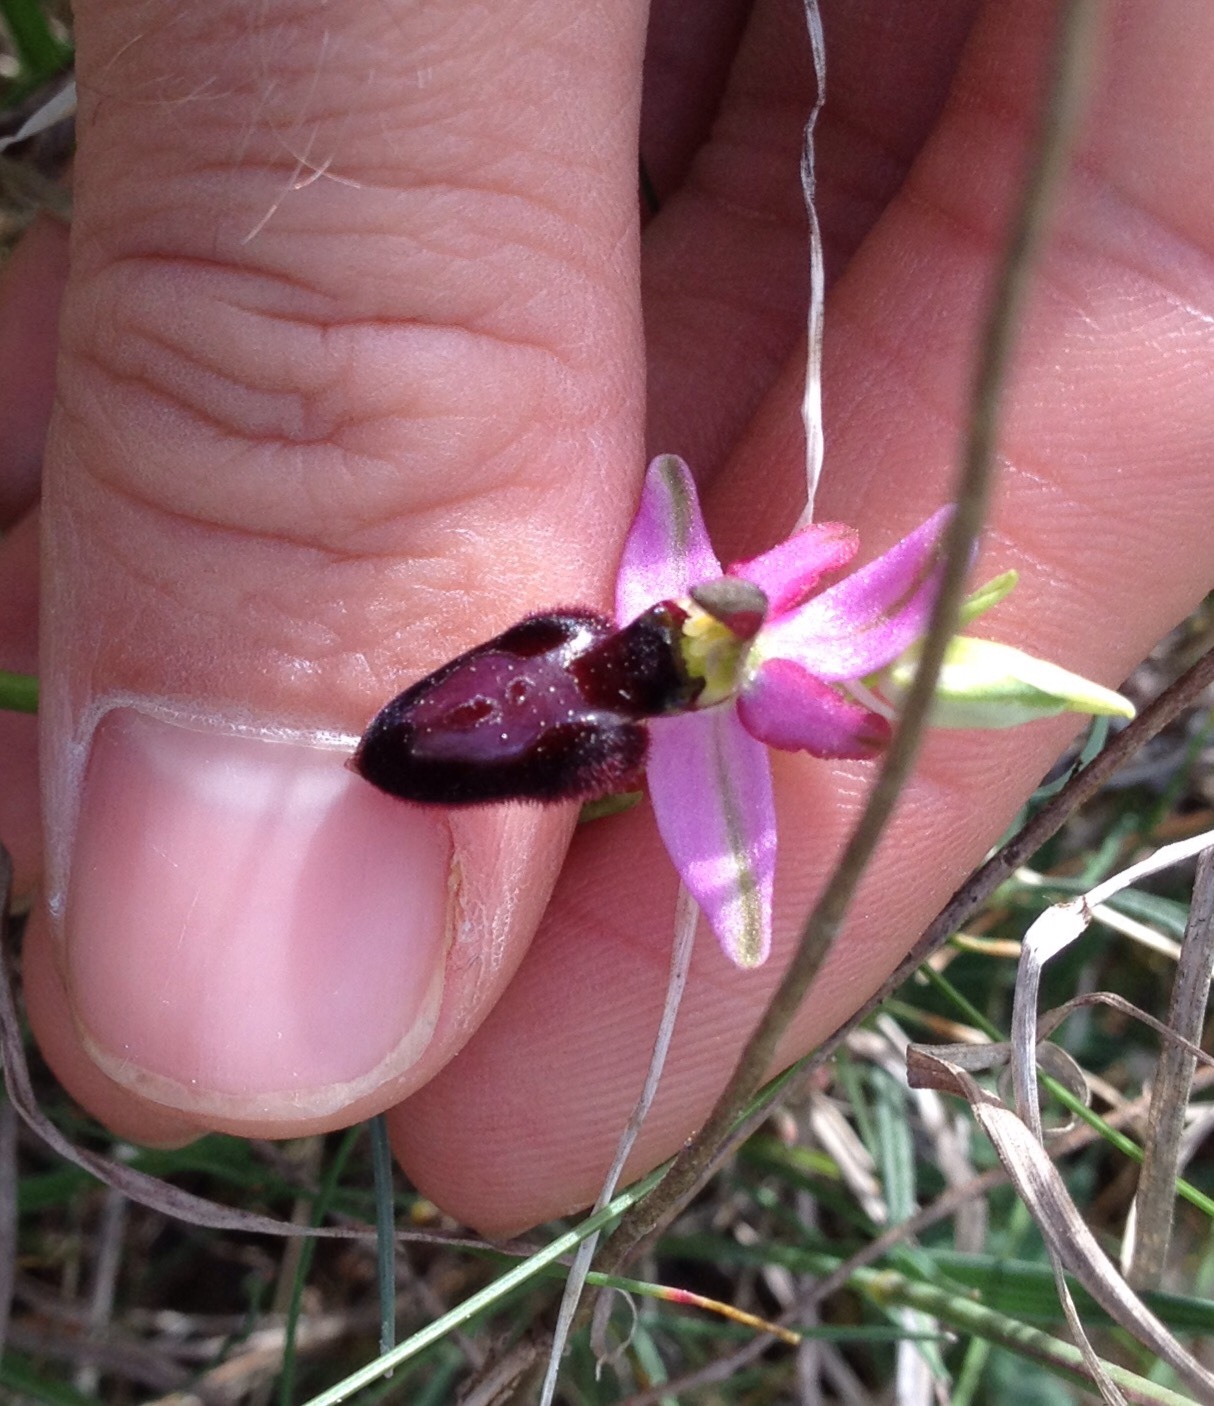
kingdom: Plantae
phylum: Tracheophyta
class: Liliopsida
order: Asparagales
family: Orchidaceae
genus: Ophrys
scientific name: Ophrys flavicans
